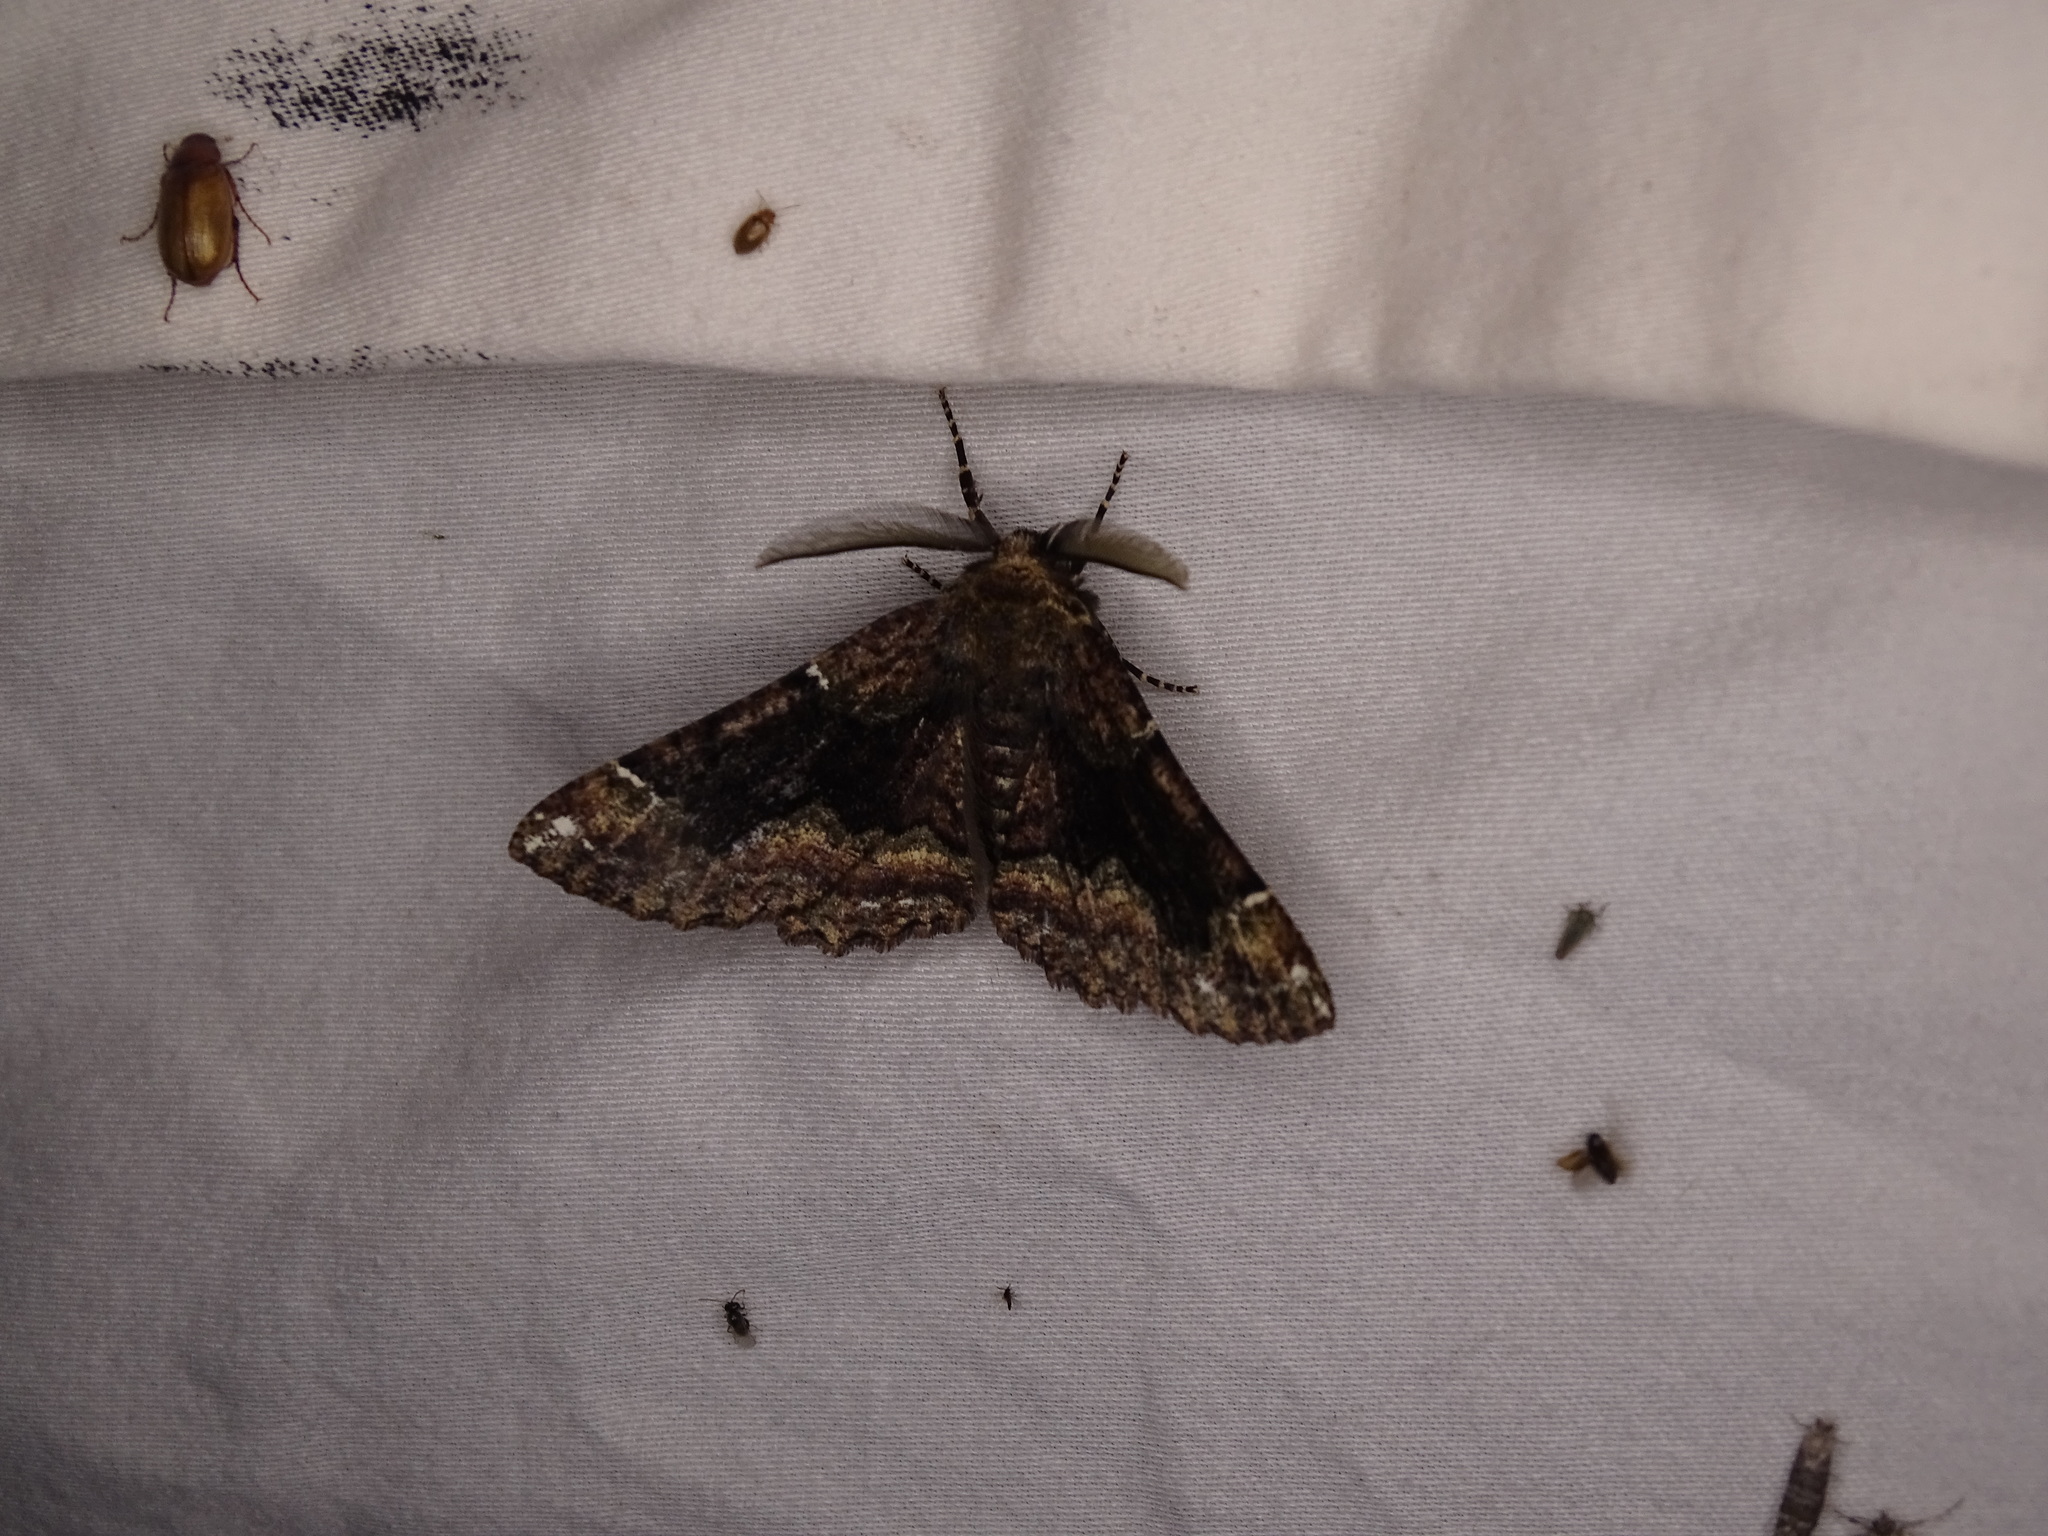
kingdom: Animalia
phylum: Arthropoda
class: Insecta
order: Lepidoptera
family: Geometridae
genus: Phaeoura
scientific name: Phaeoura quernaria
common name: Oak beauty
